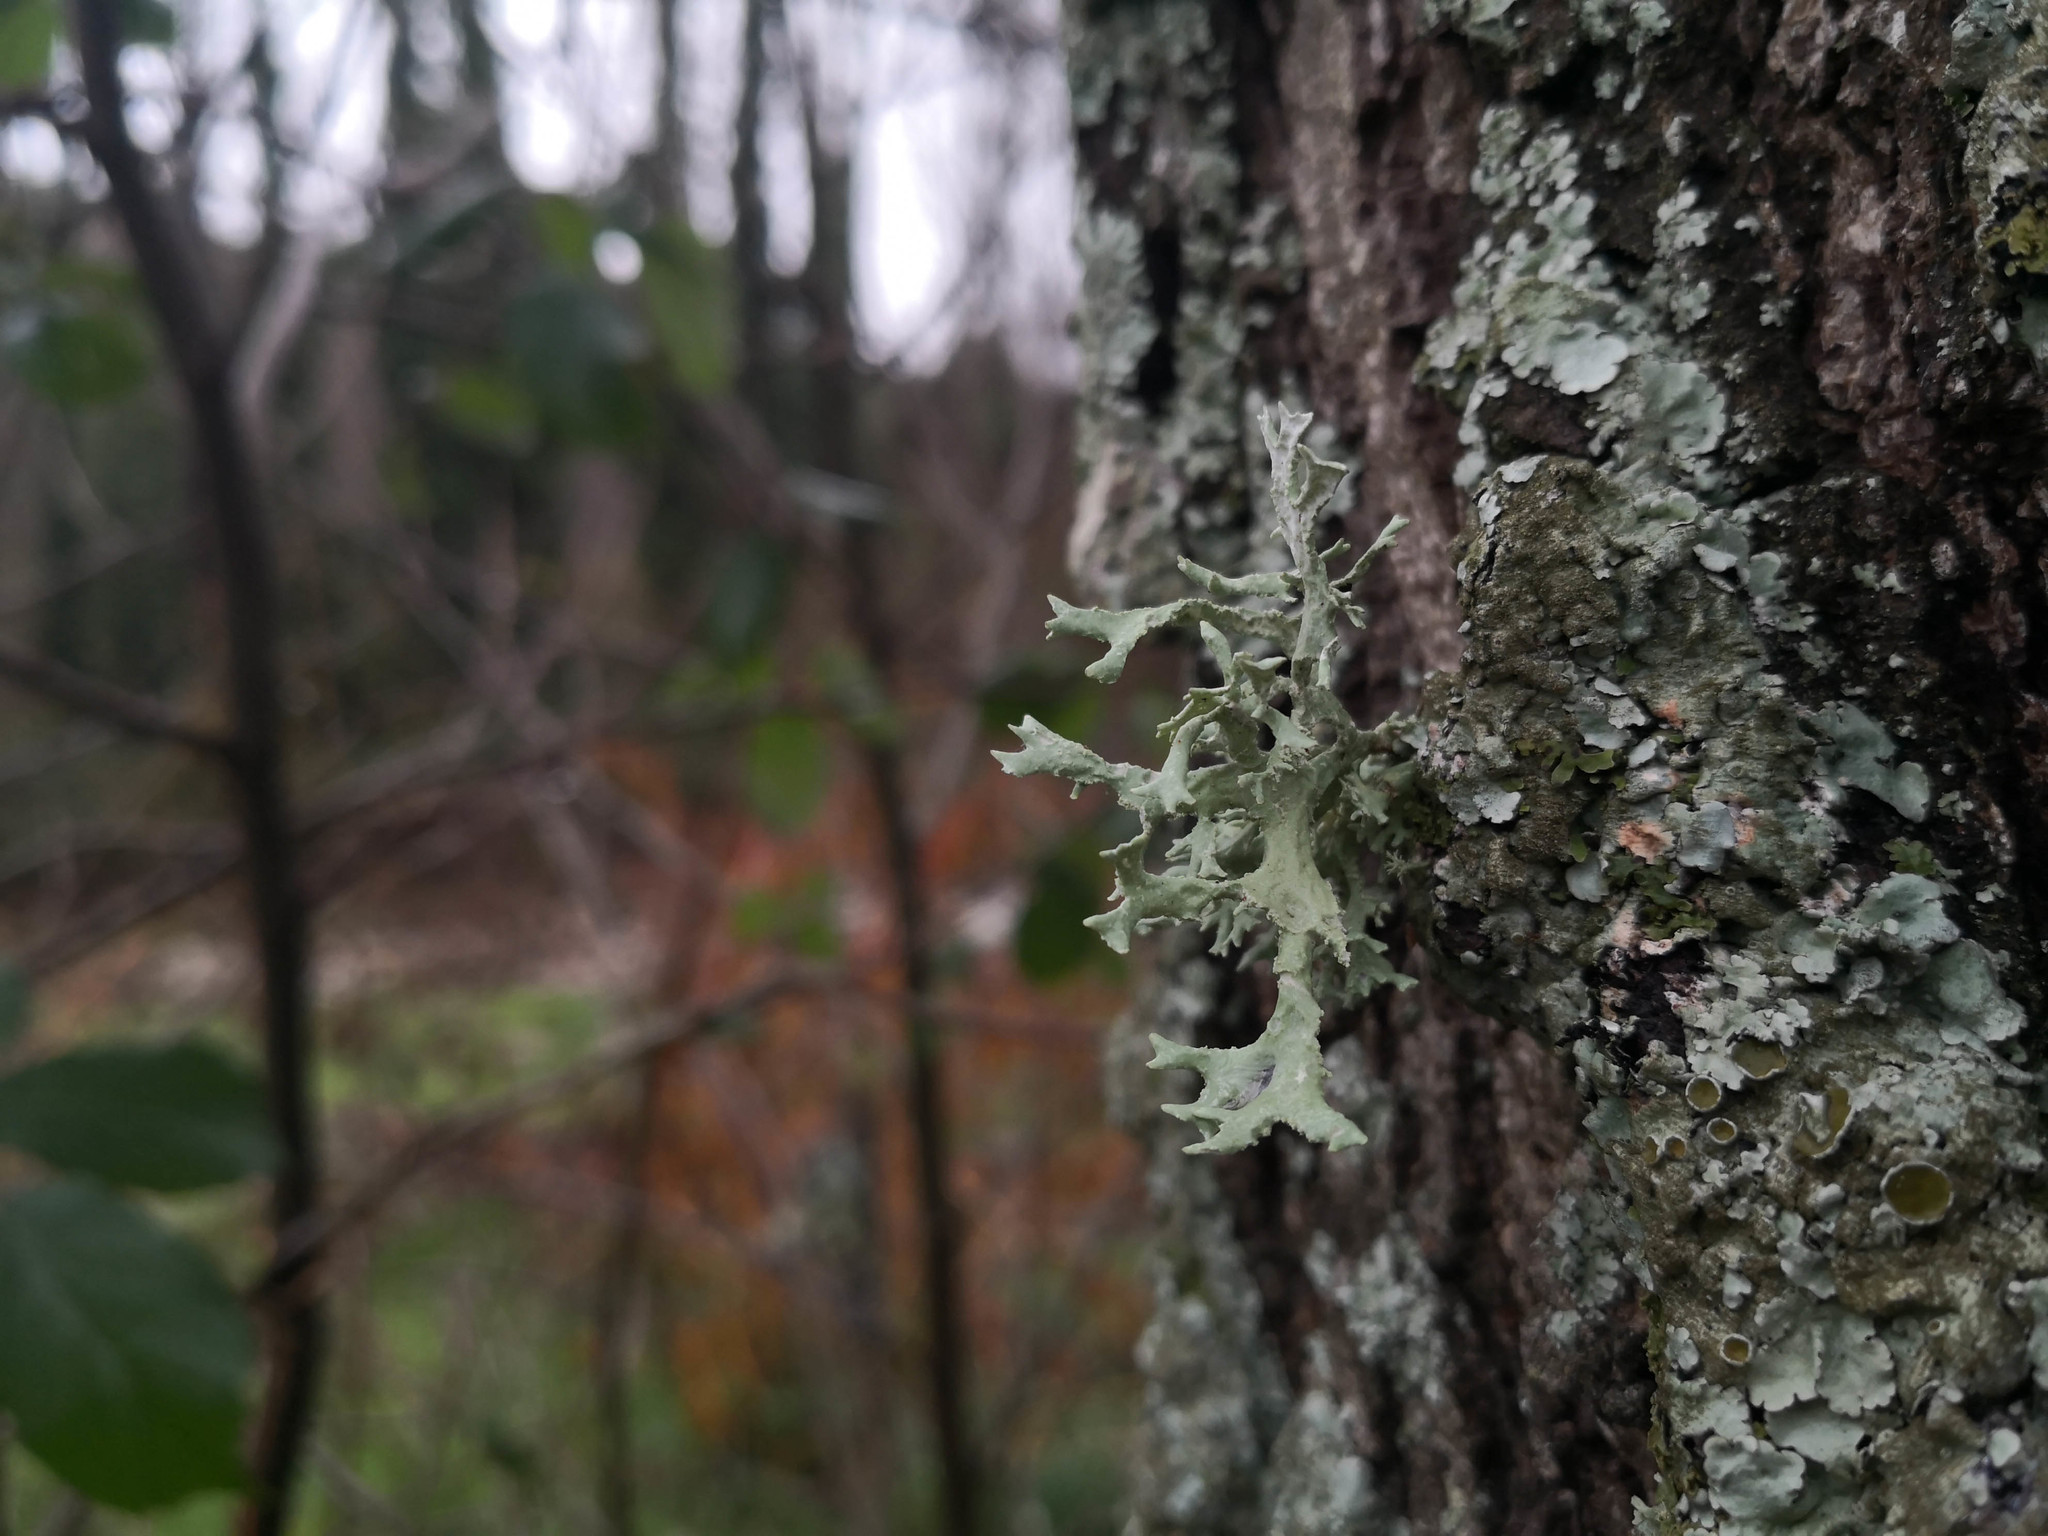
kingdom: Fungi
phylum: Ascomycota
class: Lecanoromycetes
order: Lecanorales
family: Parmeliaceae
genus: Evernia
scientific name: Evernia prunastri
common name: Oak moss
